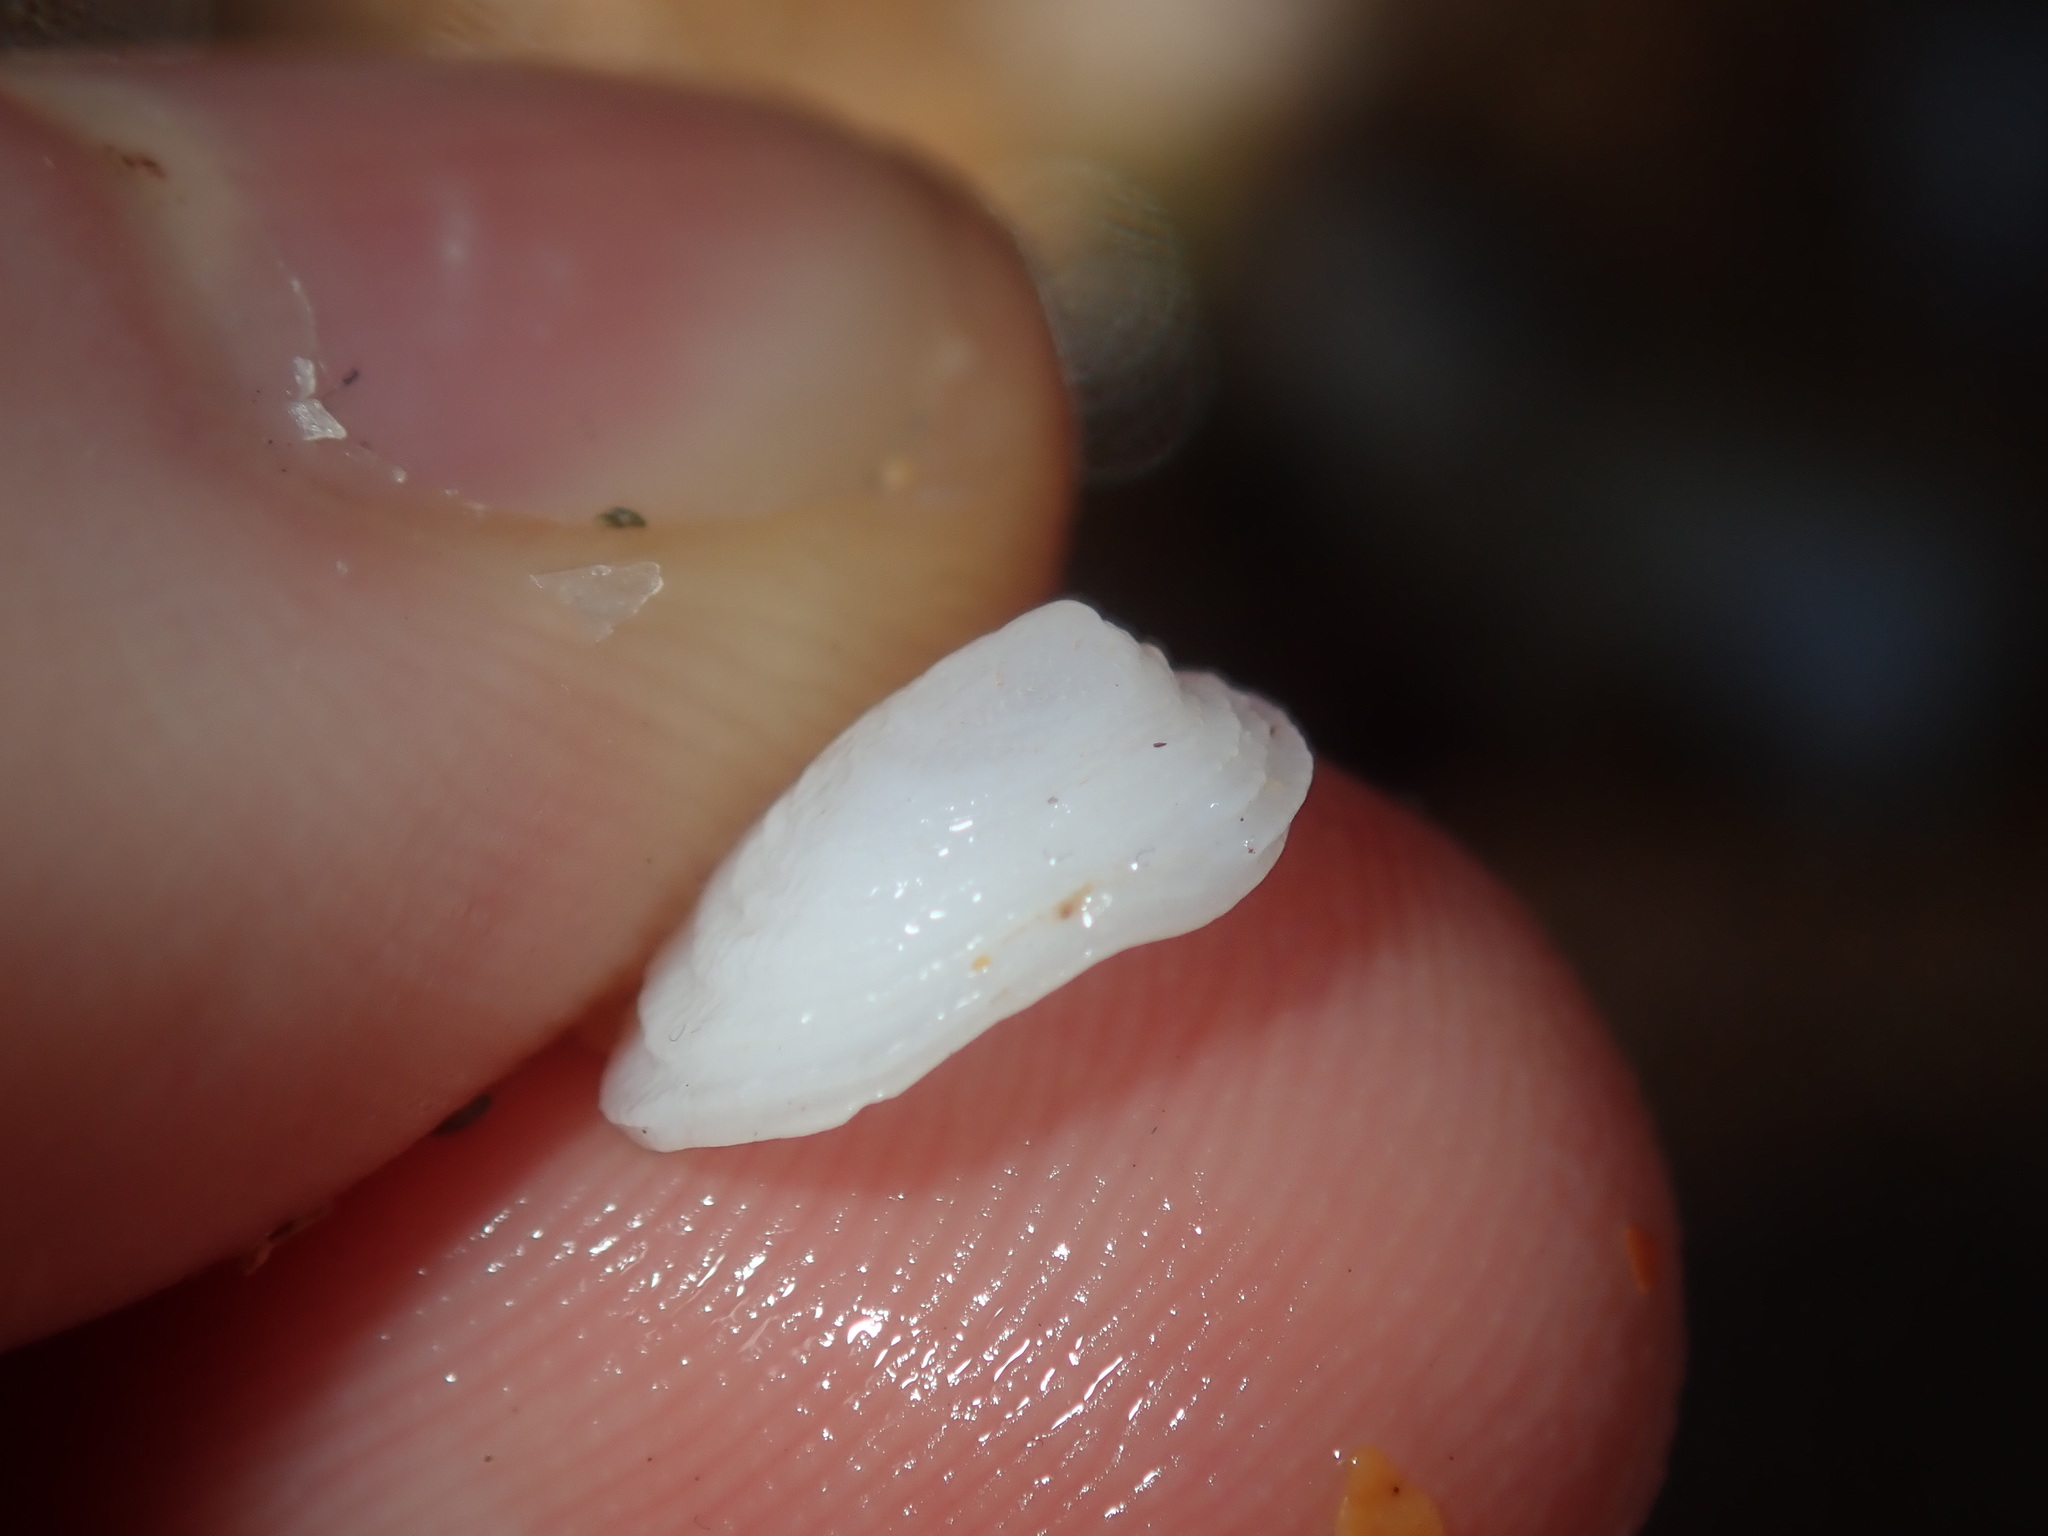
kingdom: Animalia
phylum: Mollusca
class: Gastropoda
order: Littorinimorpha
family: Hipponicidae
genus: Antisabia
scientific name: Antisabia foliacea
